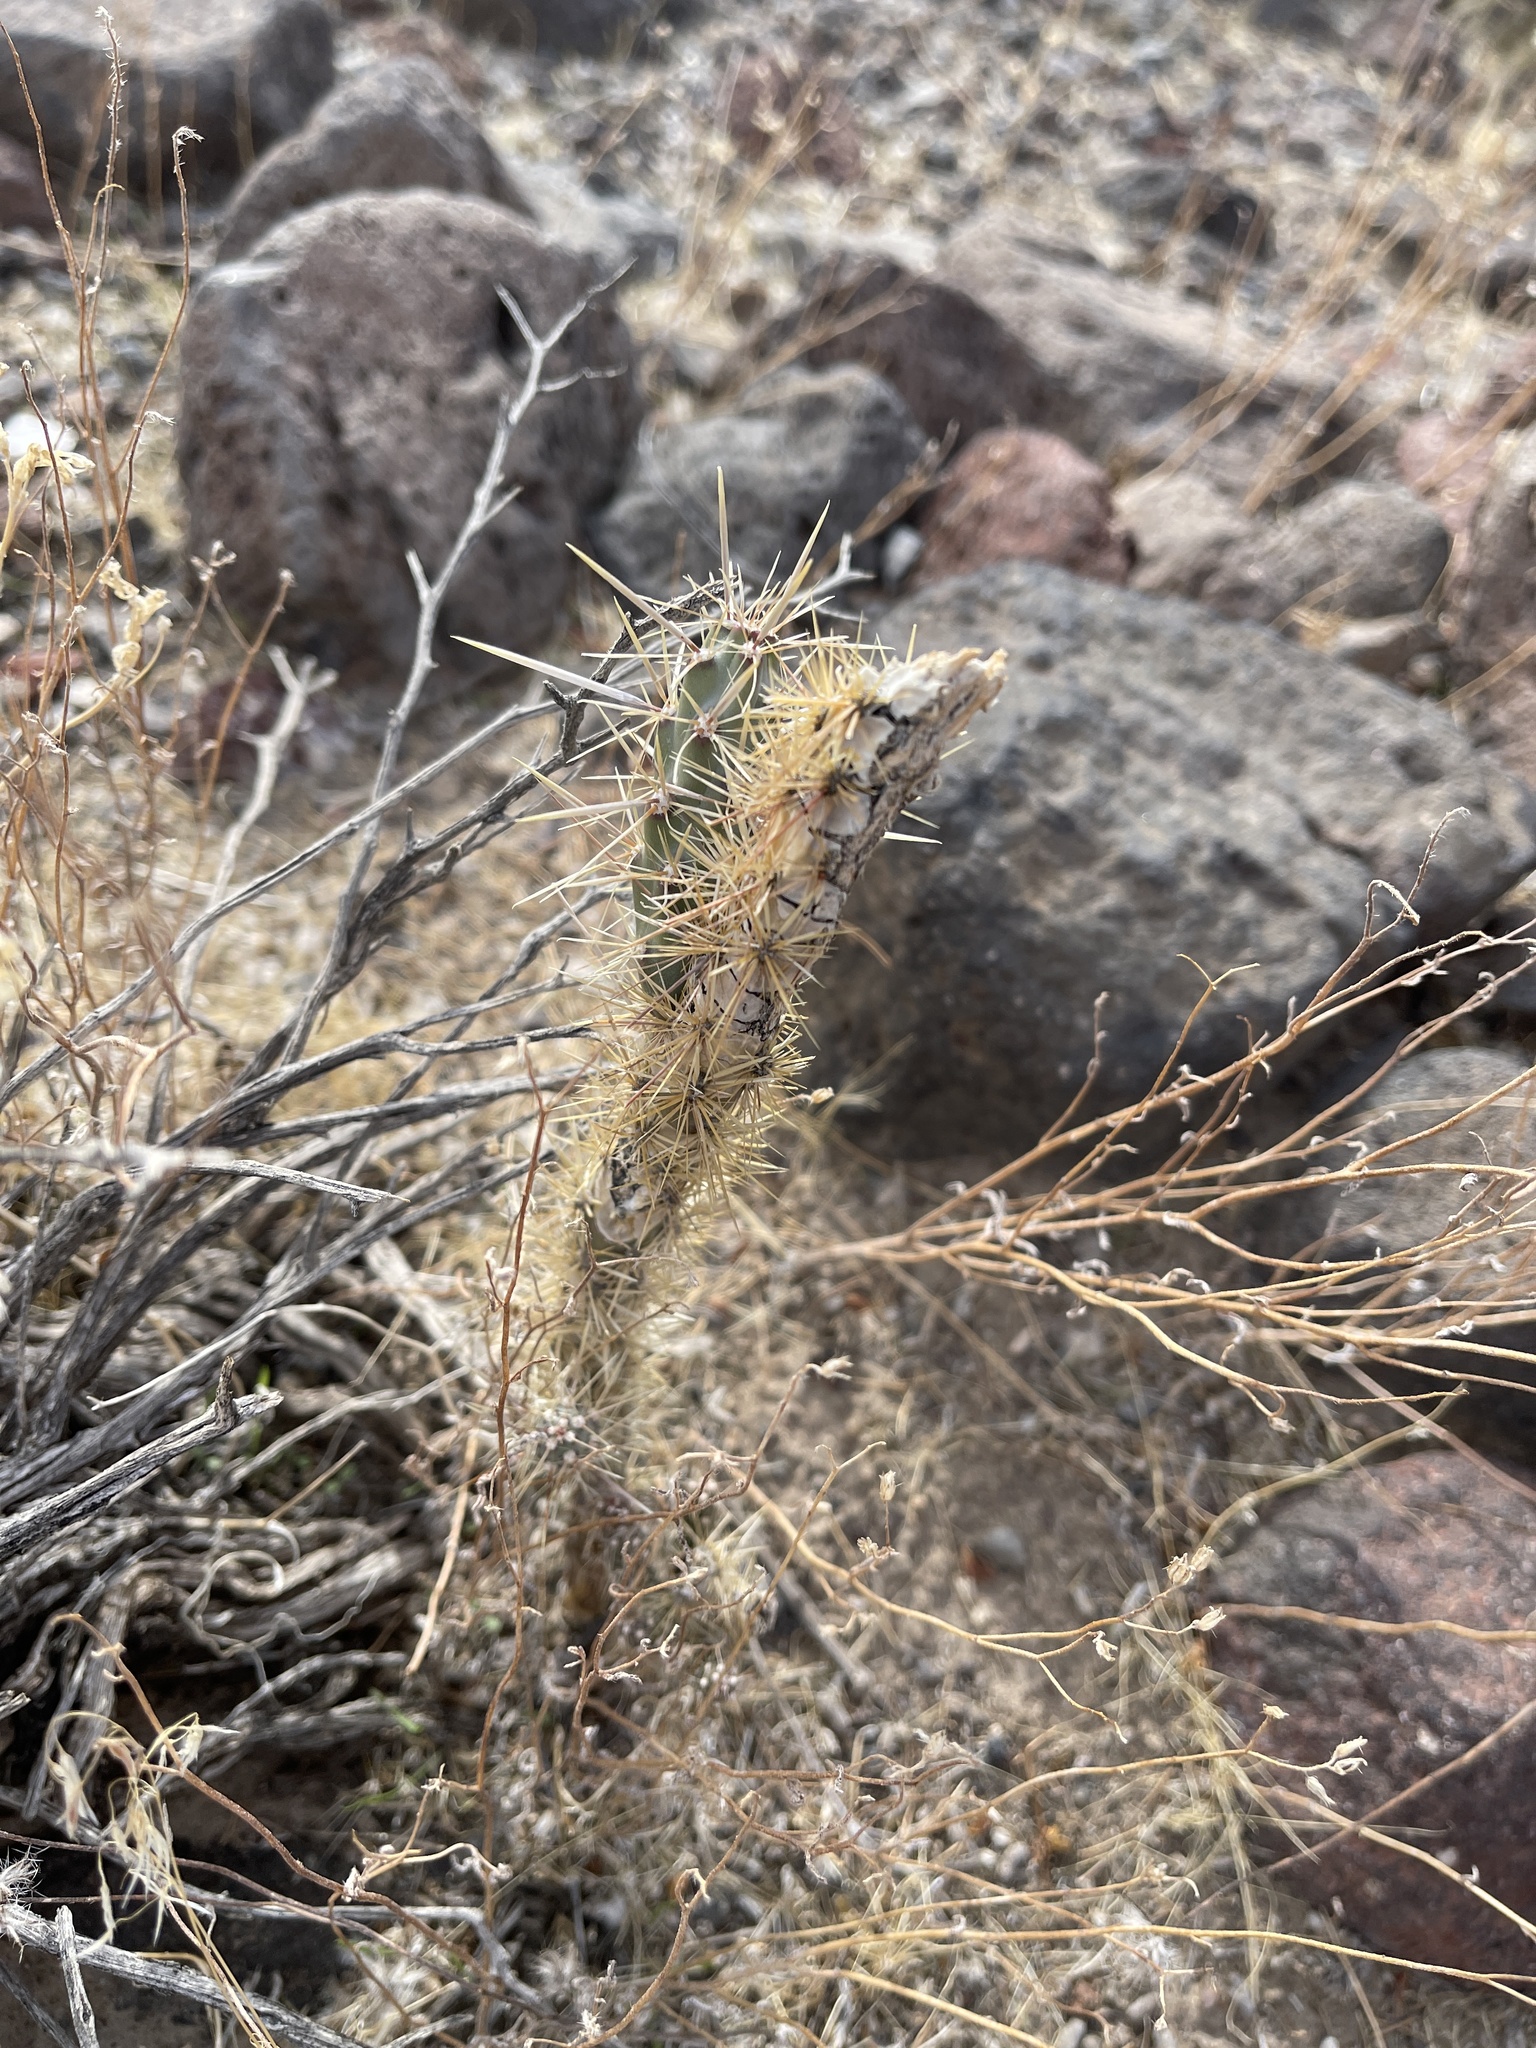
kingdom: Plantae
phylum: Tracheophyta
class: Magnoliopsida
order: Caryophyllales
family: Cactaceae
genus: Cylindropuntia
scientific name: Cylindropuntia echinocarpa
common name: Ground cholla
